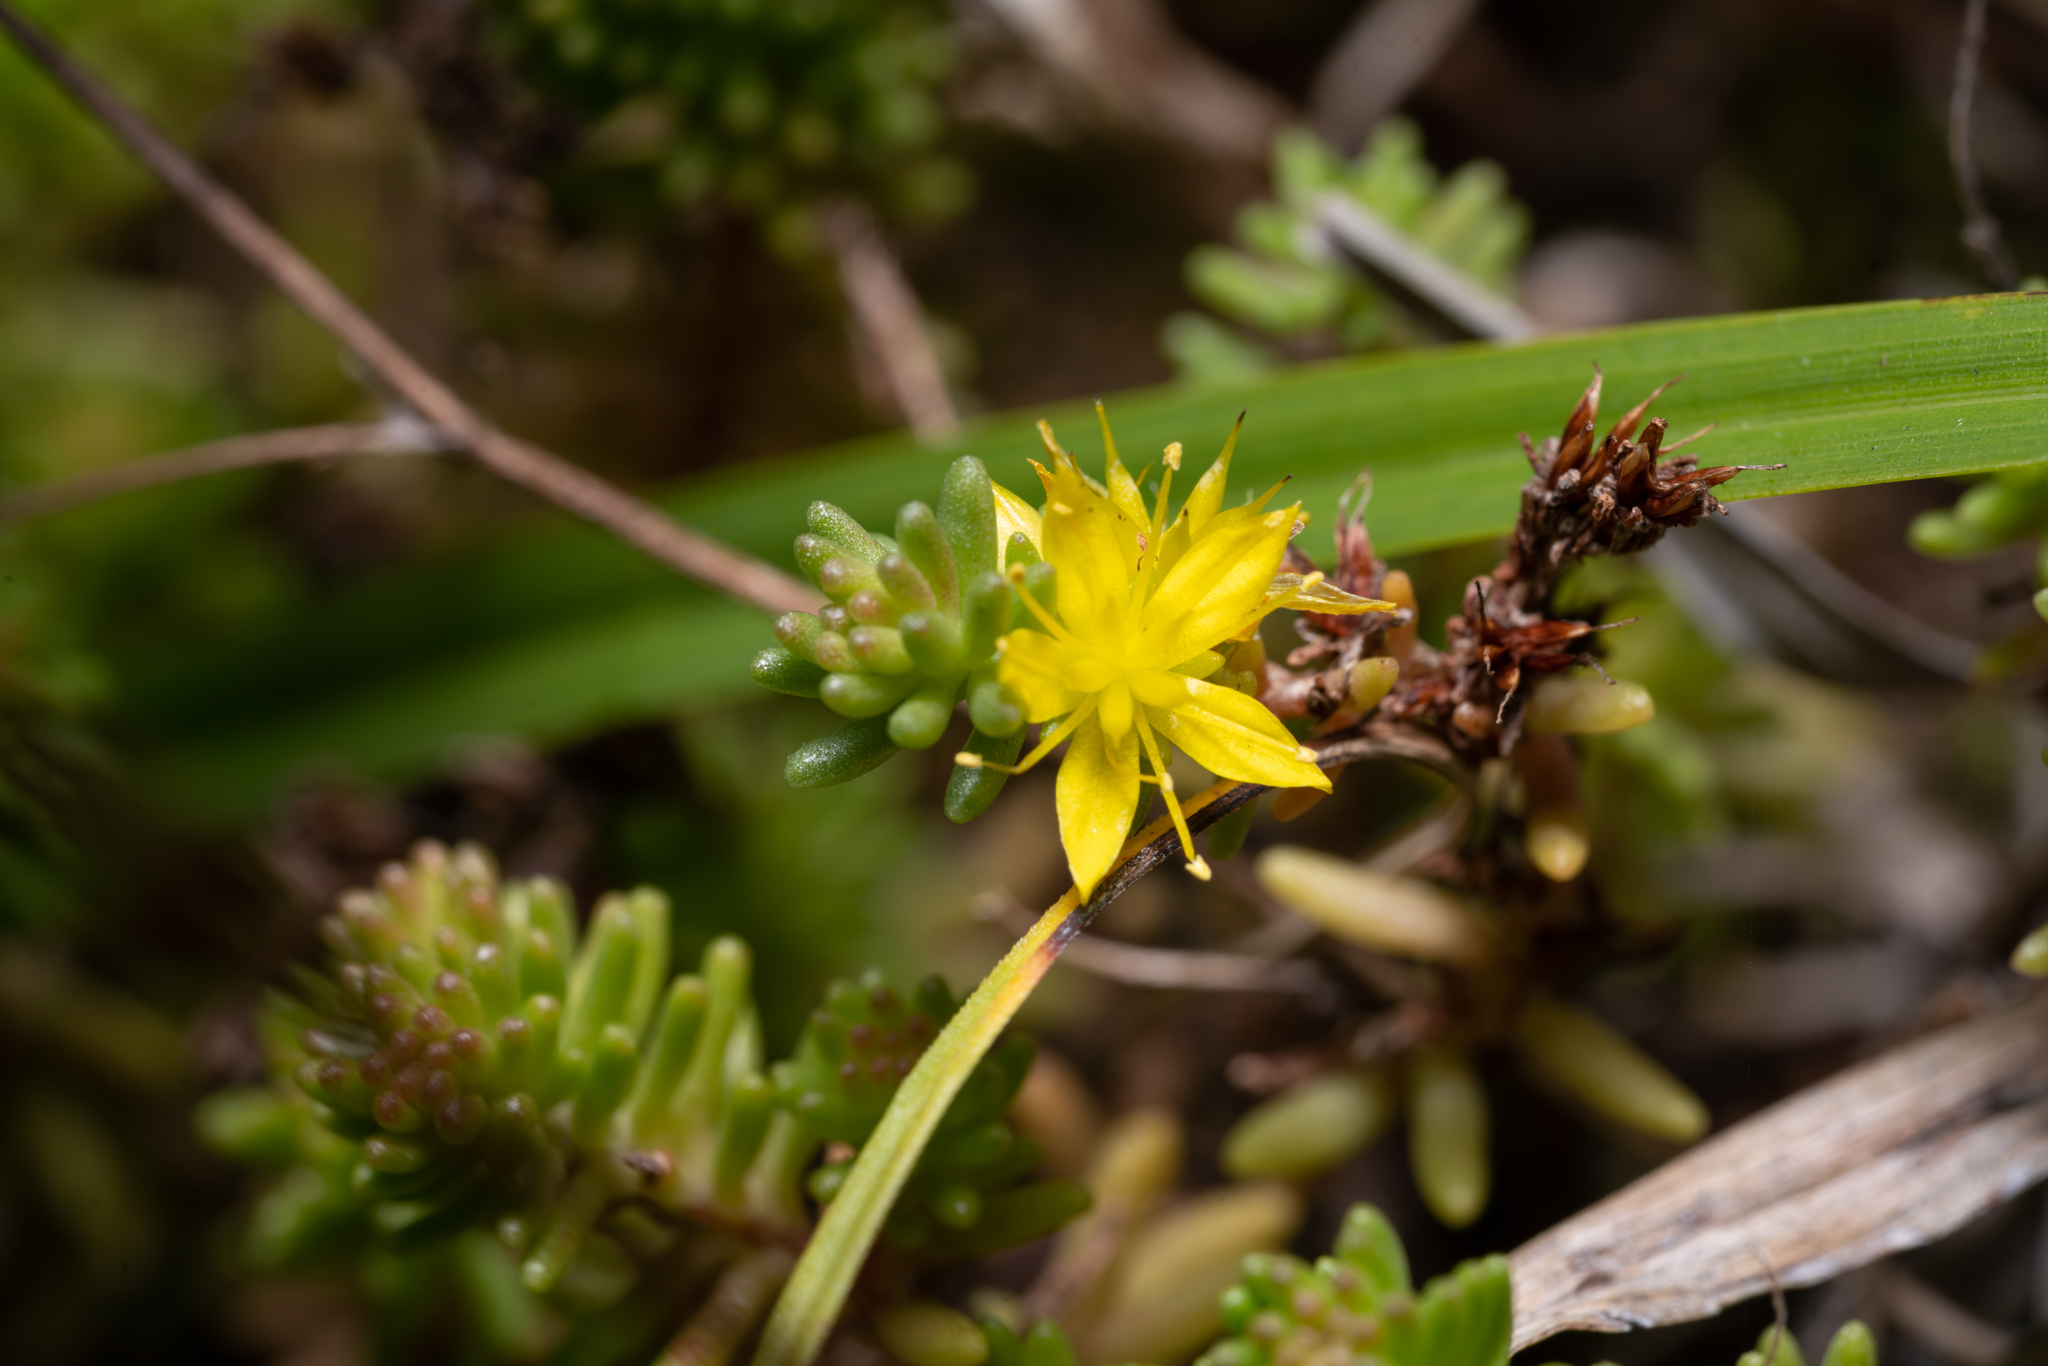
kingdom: Plantae
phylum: Tracheophyta
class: Magnoliopsida
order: Saxifragales
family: Crassulaceae
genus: Sedum
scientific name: Sedum sexangulare
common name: Tasteless stonecrop
